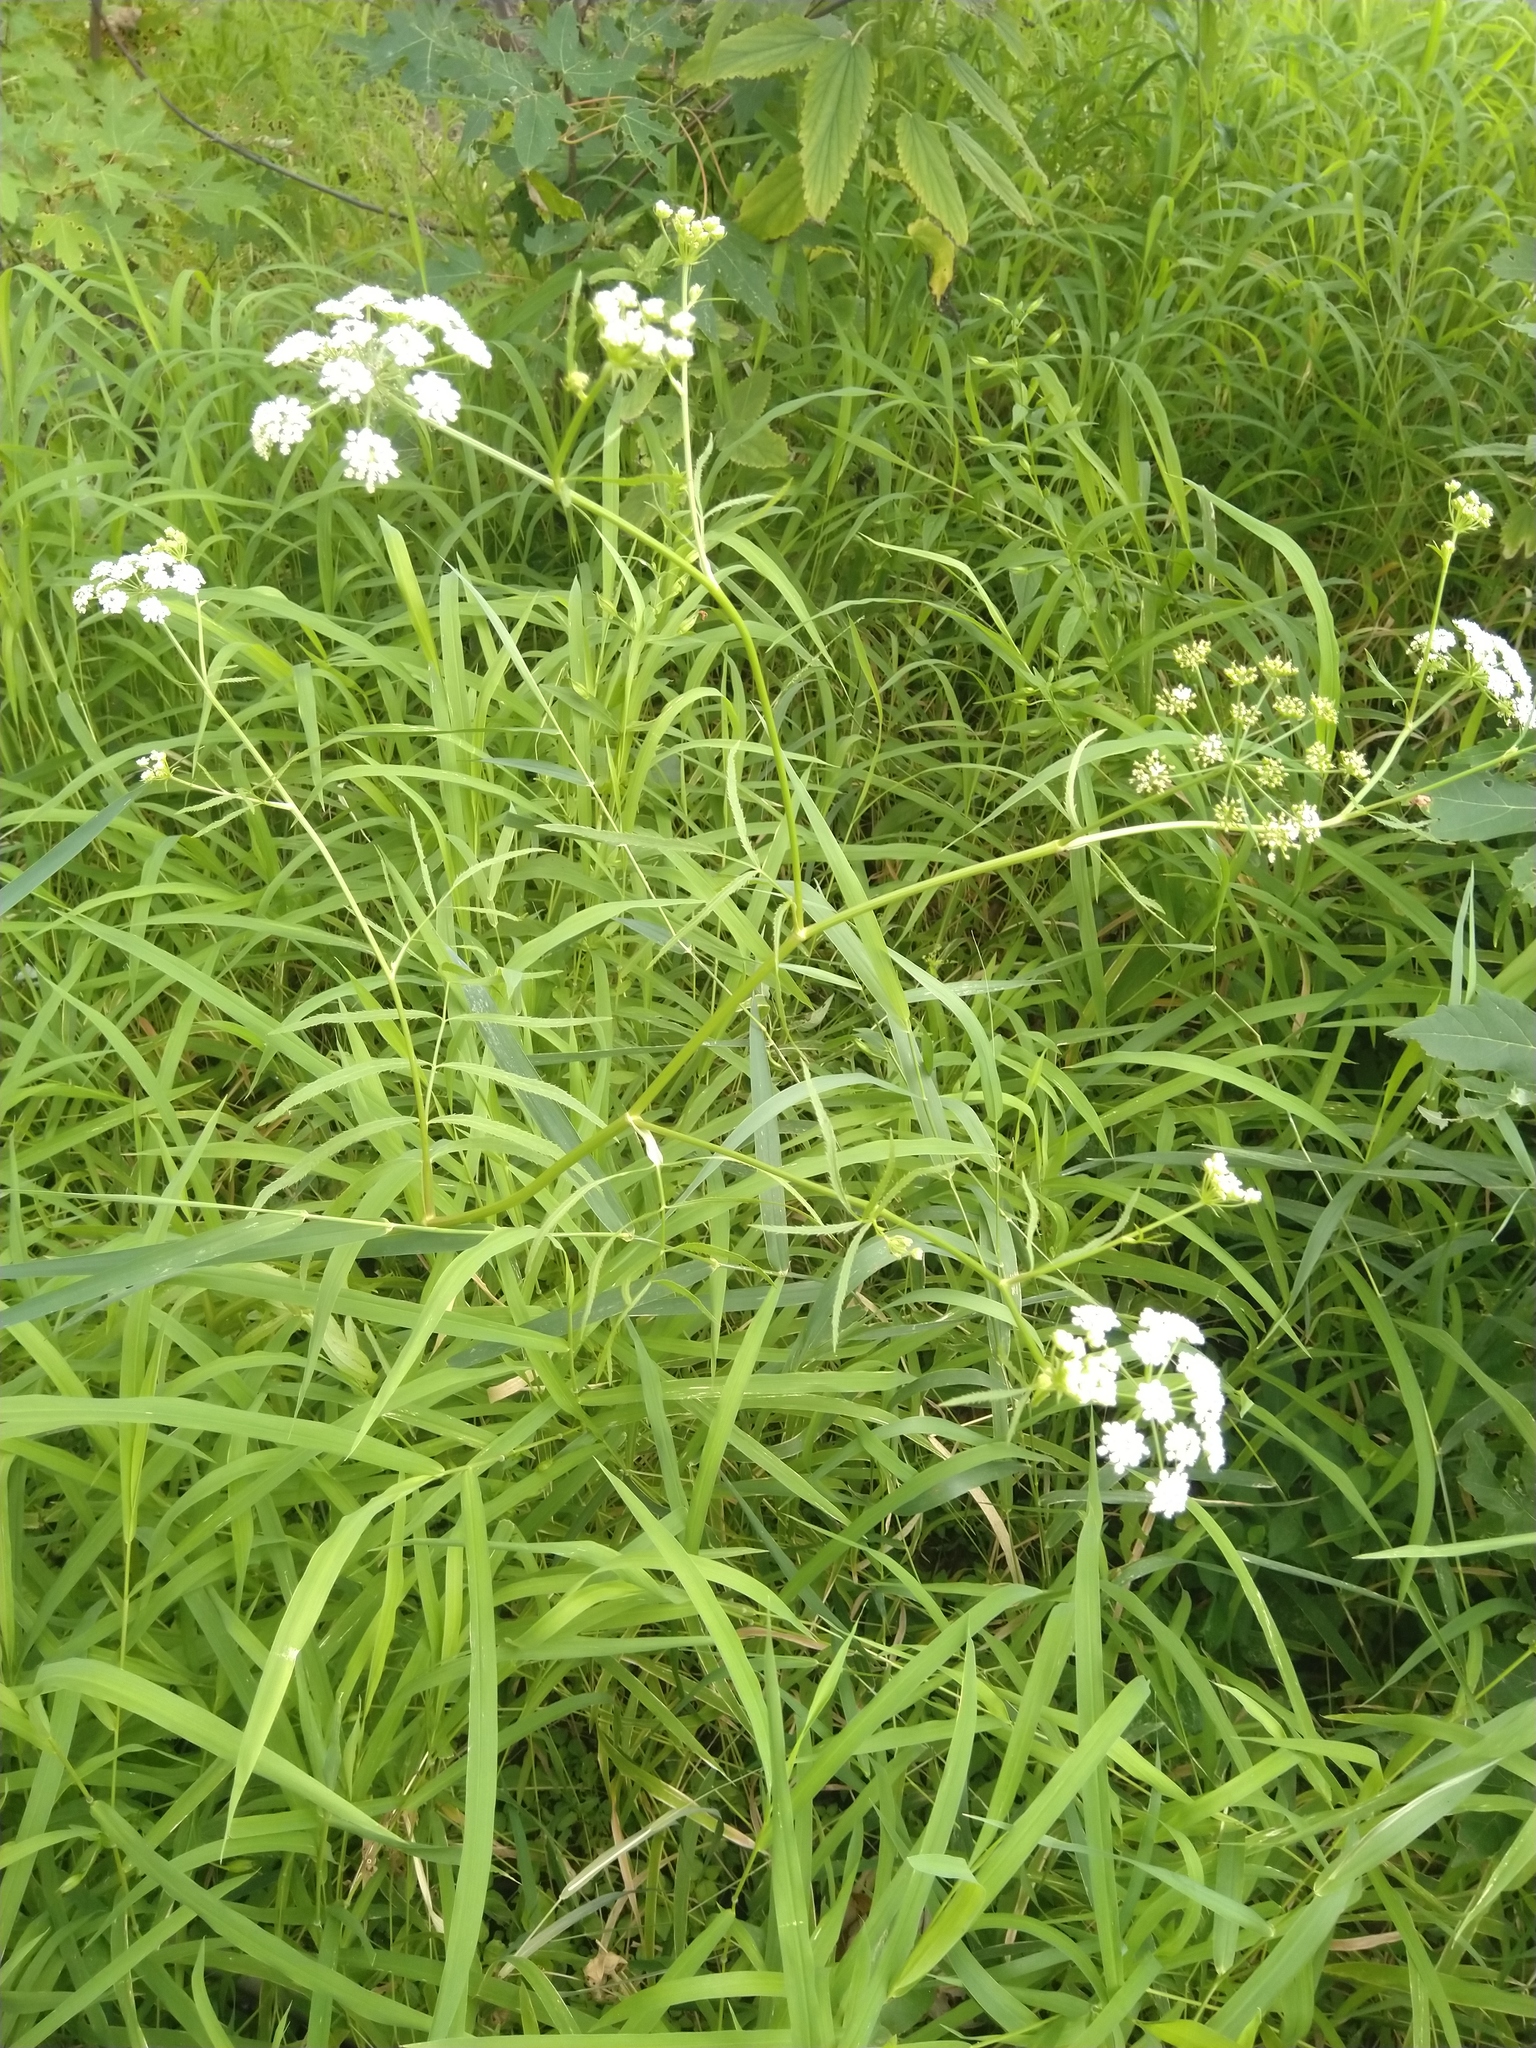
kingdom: Plantae
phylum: Tracheophyta
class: Magnoliopsida
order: Apiales
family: Apiaceae
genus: Sium
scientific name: Sium suave
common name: Hemlock water-parsnip
